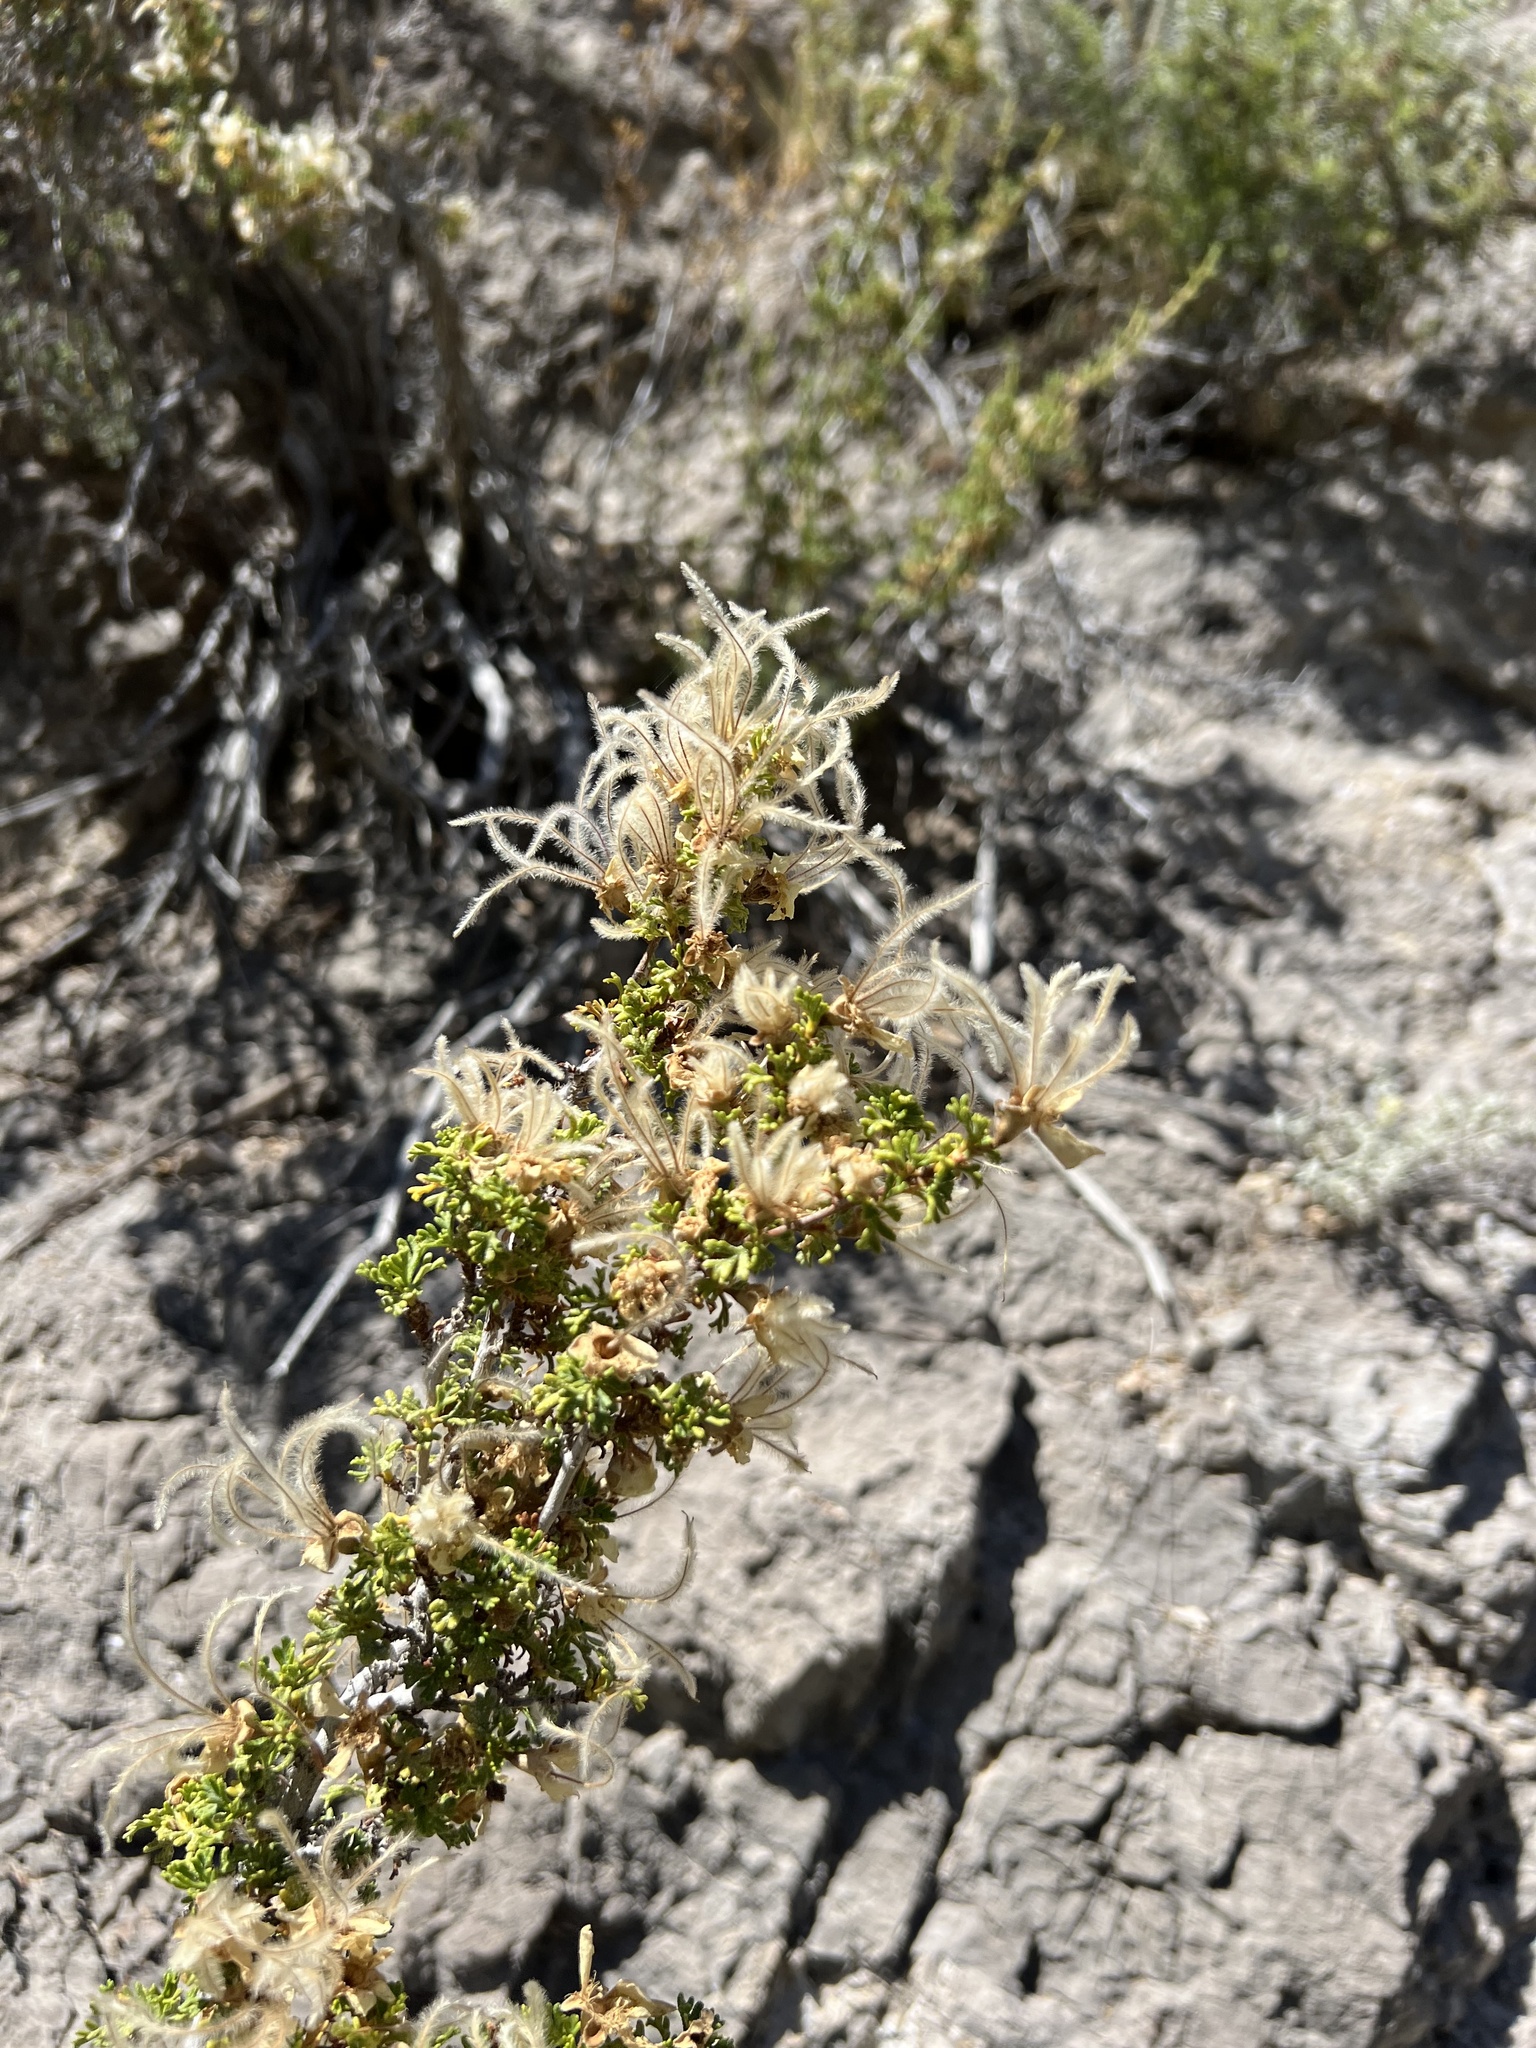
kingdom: Plantae
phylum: Tracheophyta
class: Magnoliopsida
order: Rosales
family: Rosaceae
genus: Purshia
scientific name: Purshia stansburiana
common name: Stansbury's cliffrose
